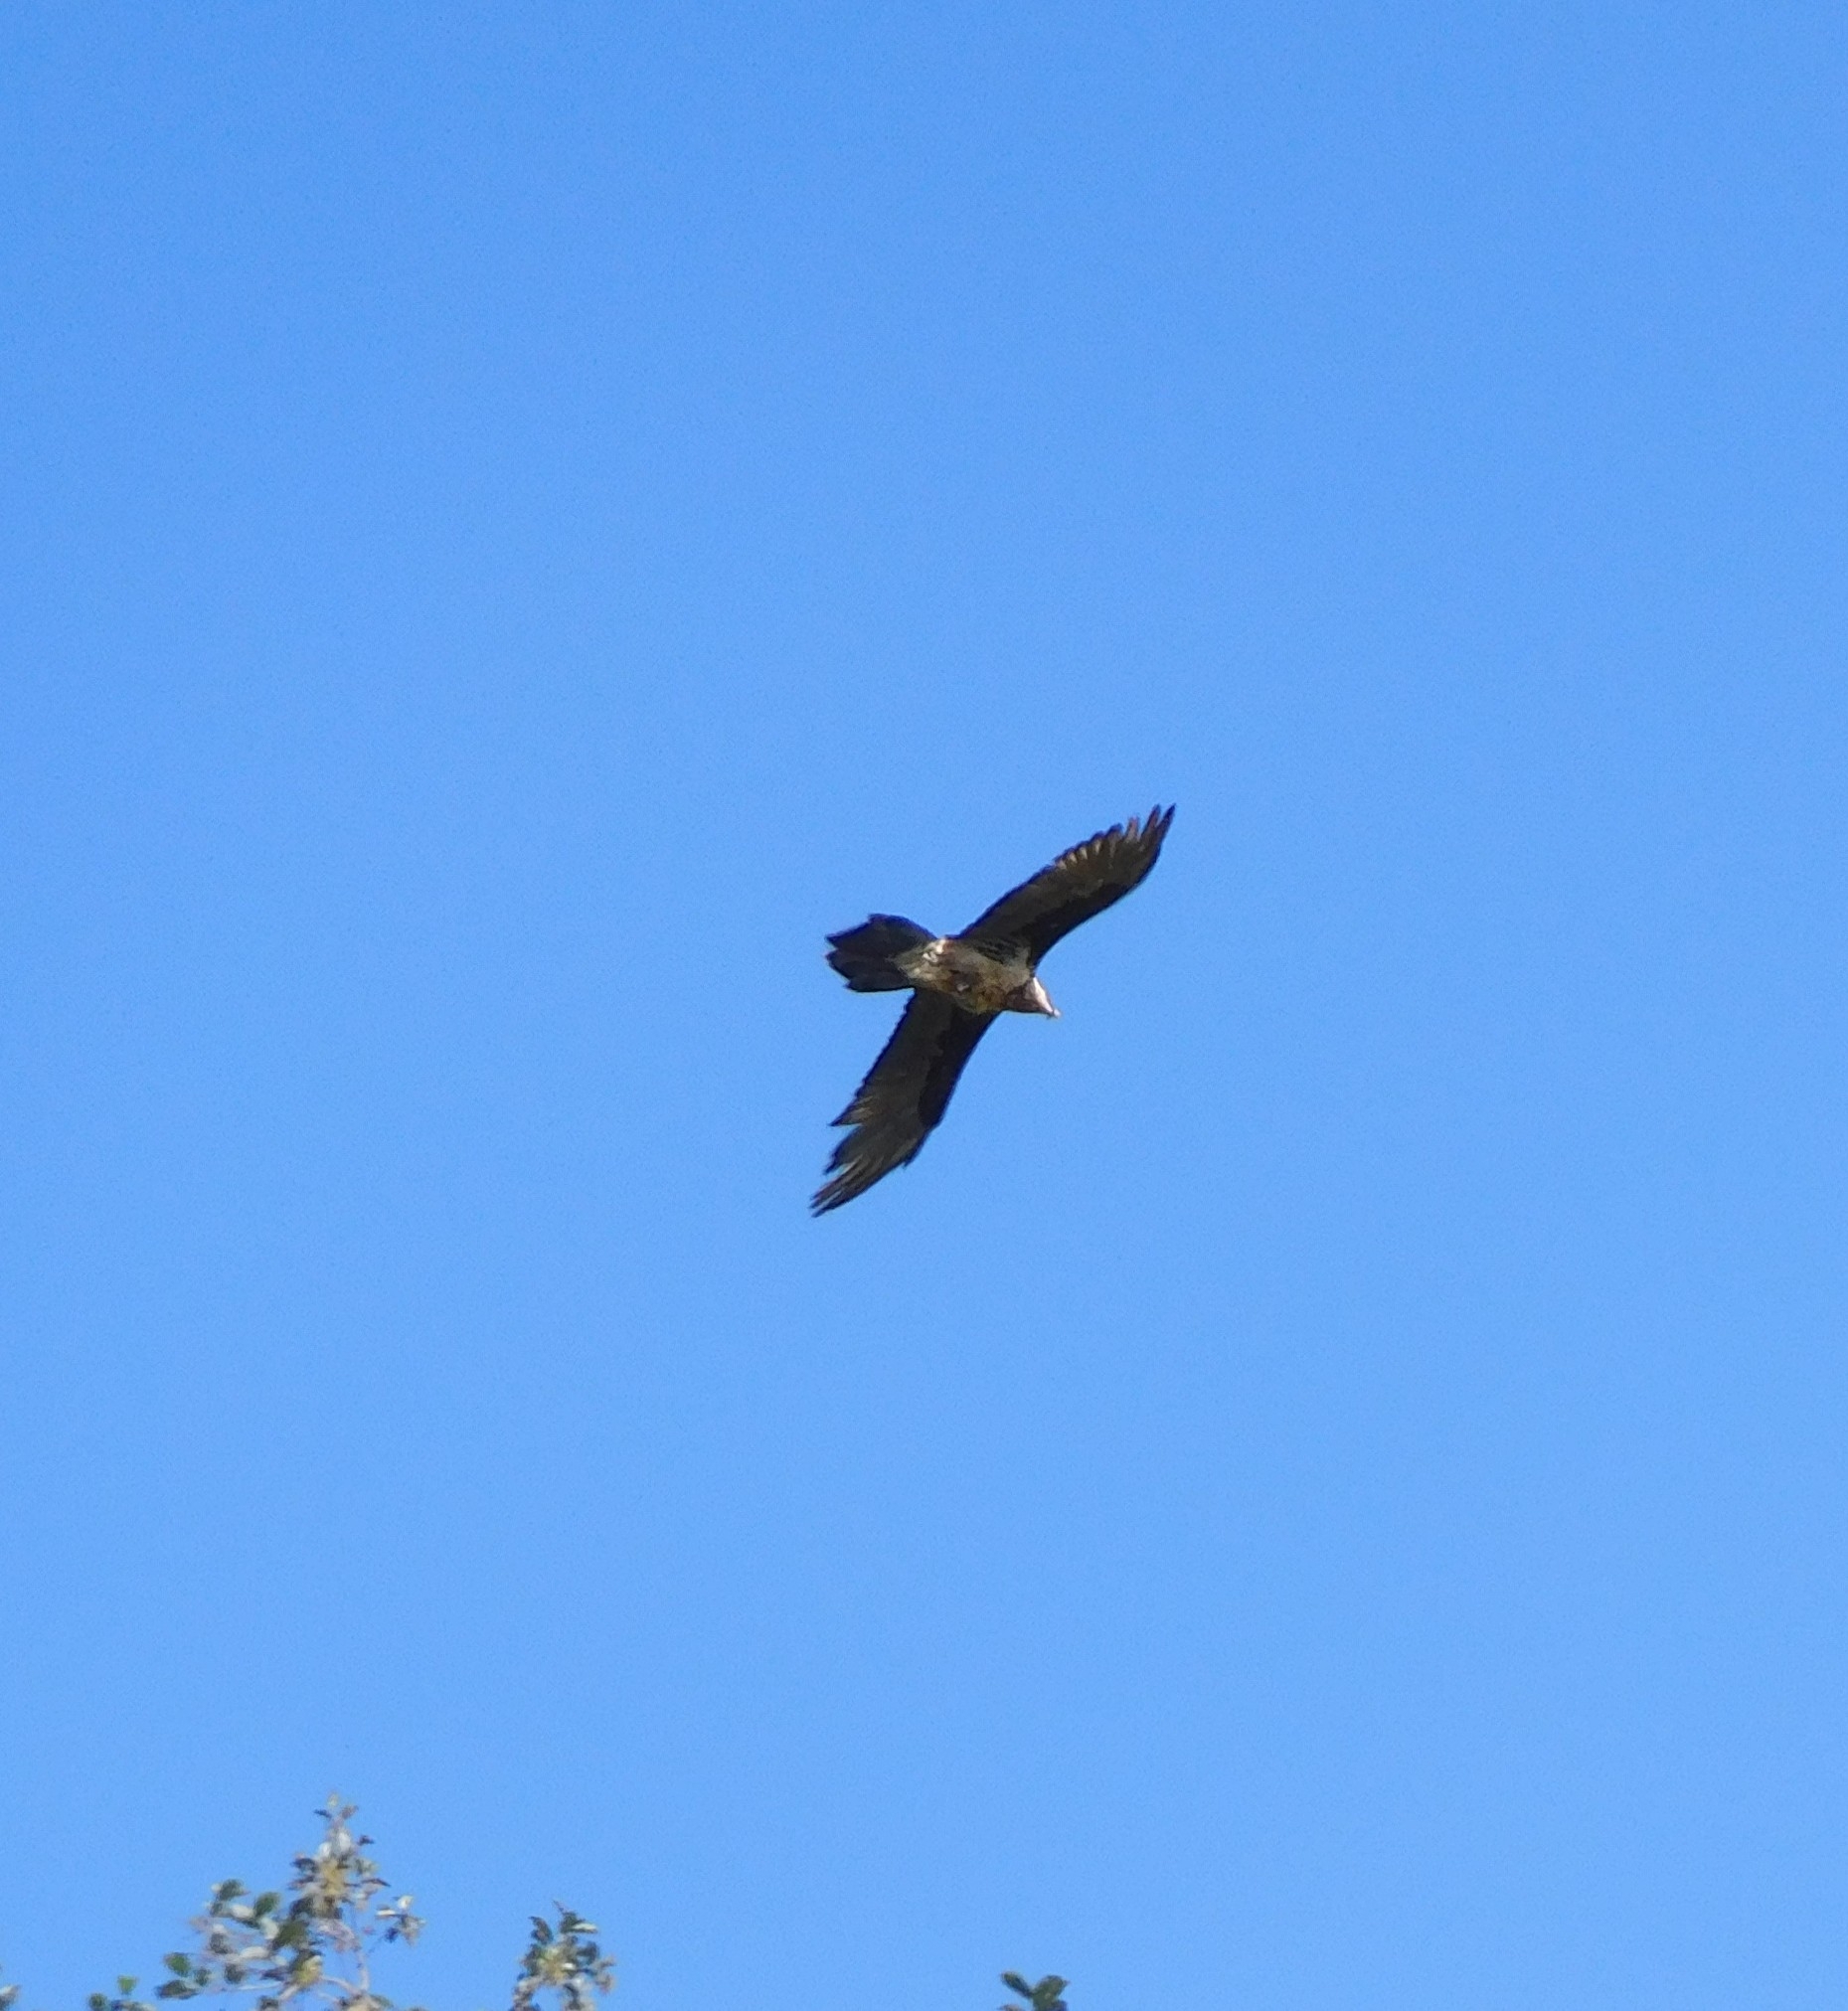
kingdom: Animalia
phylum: Chordata
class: Aves
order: Accipitriformes
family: Accipitridae
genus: Gypaetus
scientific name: Gypaetus barbatus
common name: Bearded vulture
